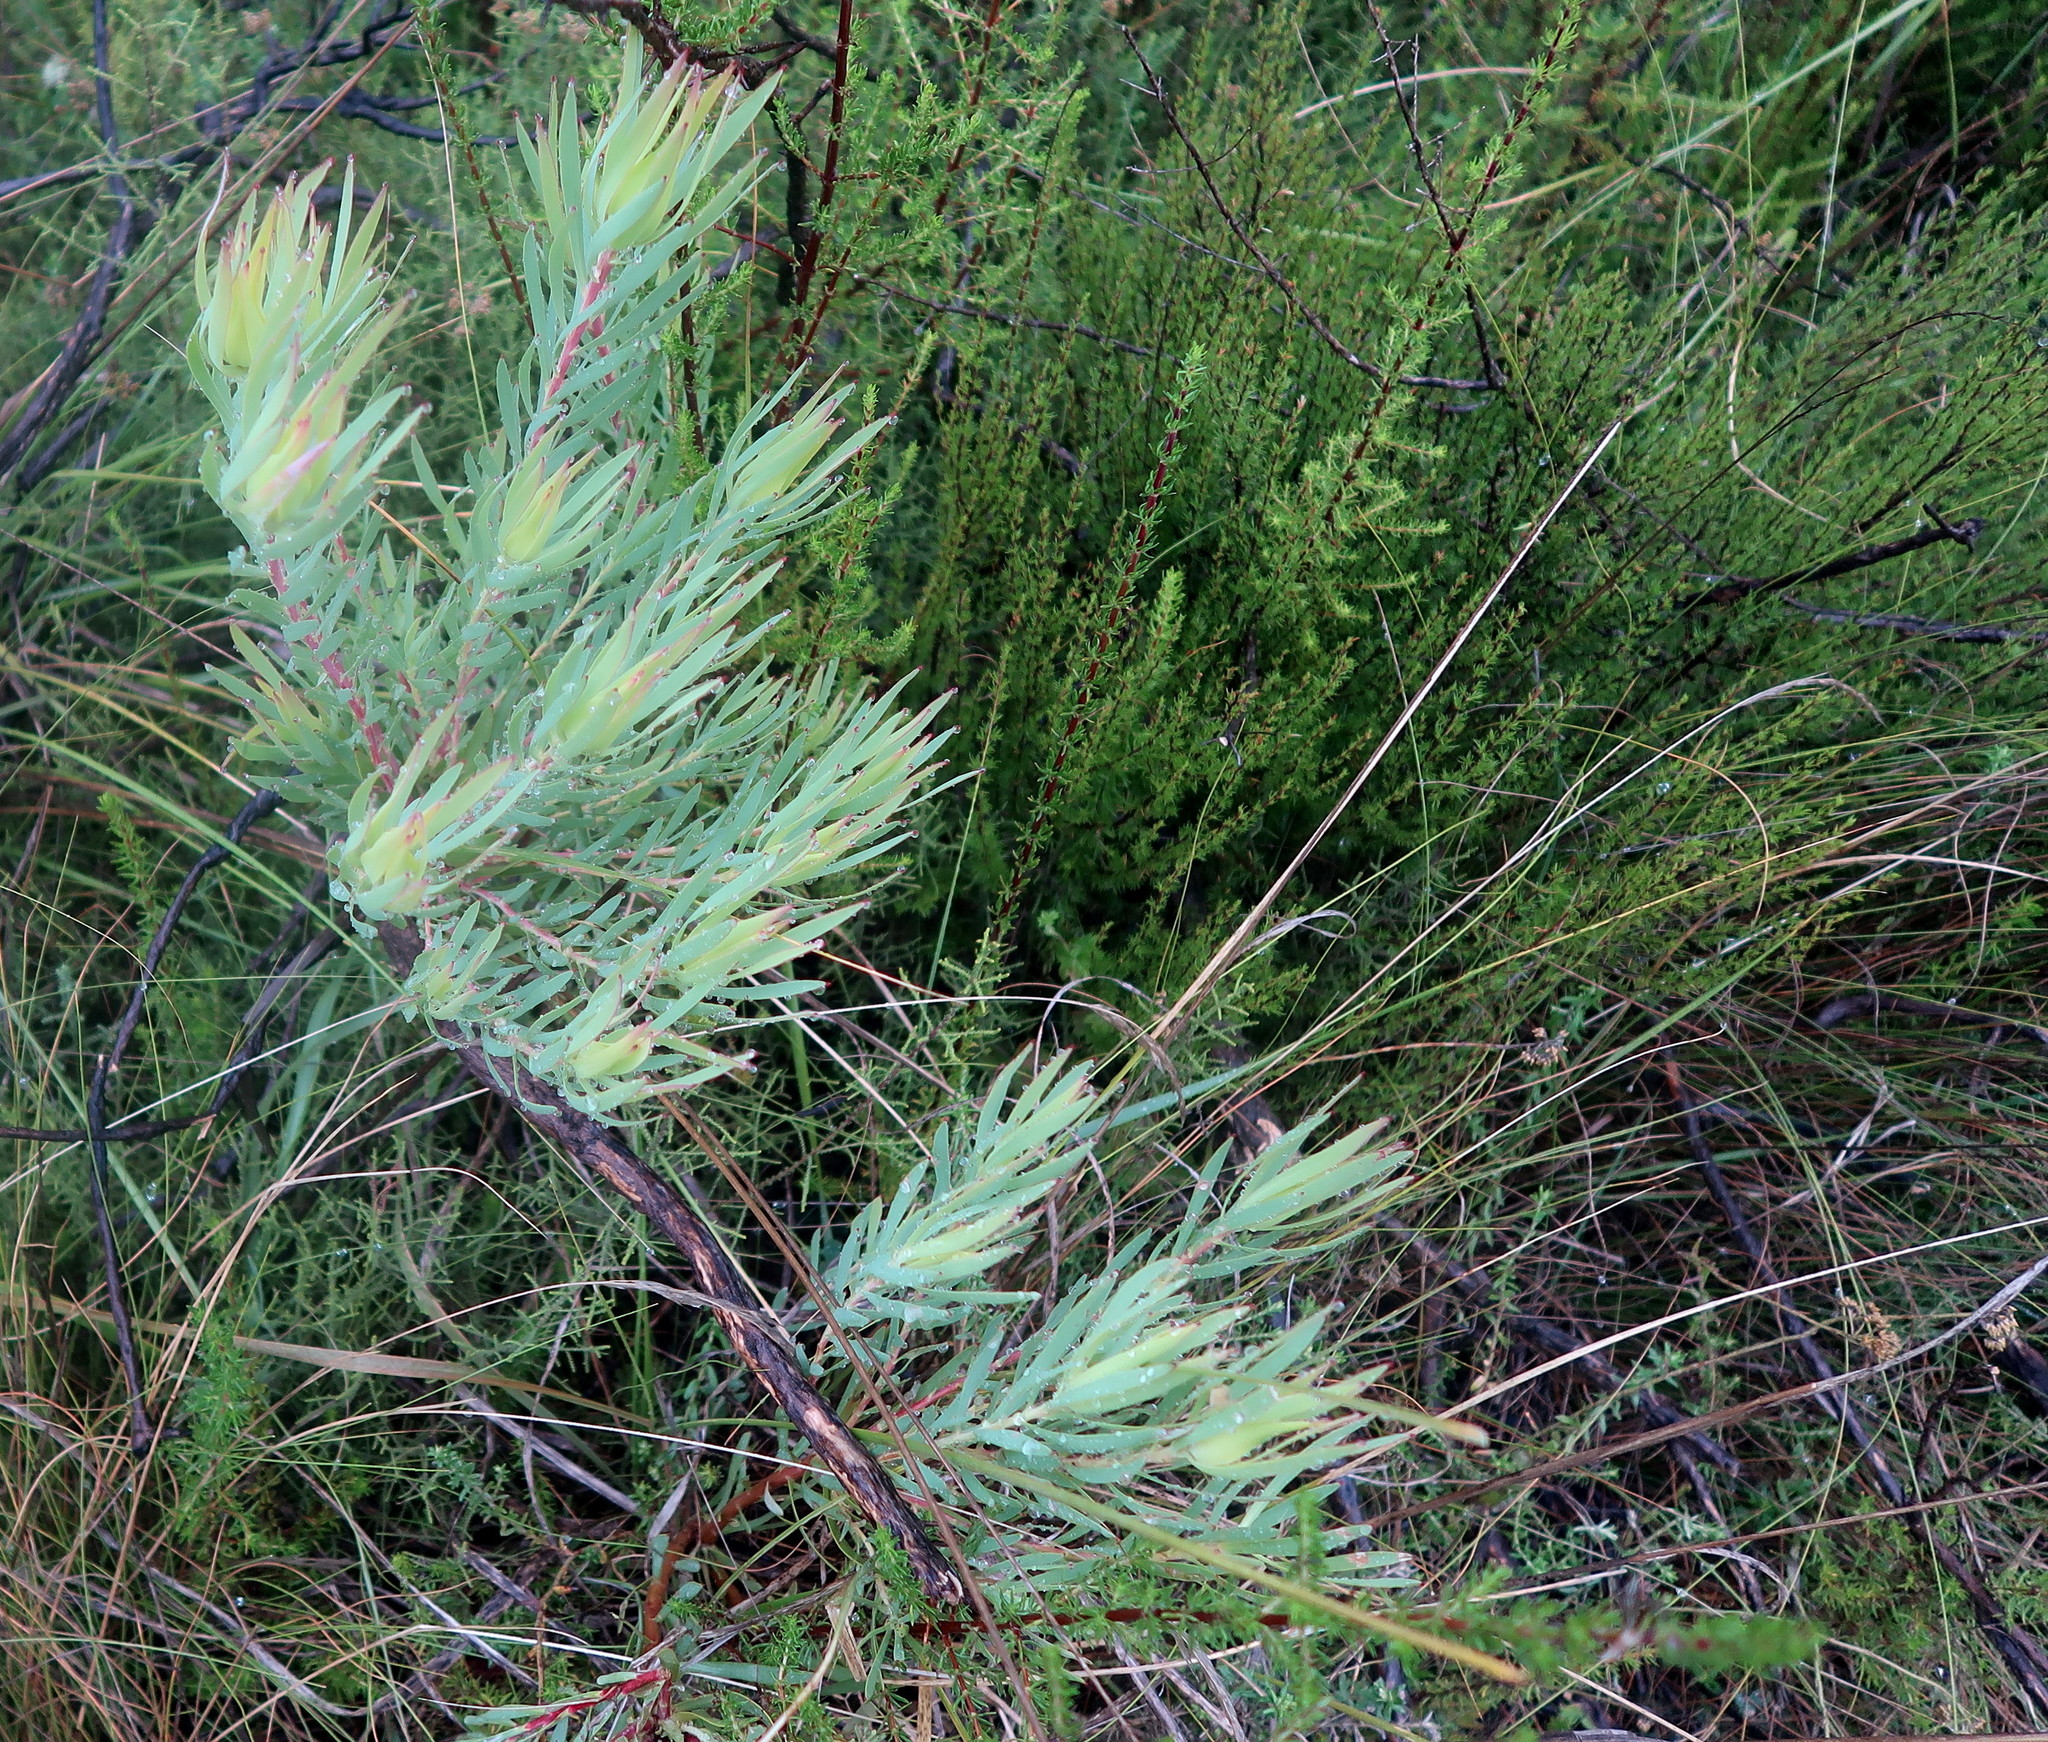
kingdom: Plantae
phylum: Tracheophyta
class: Magnoliopsida
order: Proteales
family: Proteaceae
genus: Leucadendron
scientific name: Leucadendron salignum
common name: Common sunshine conebush
